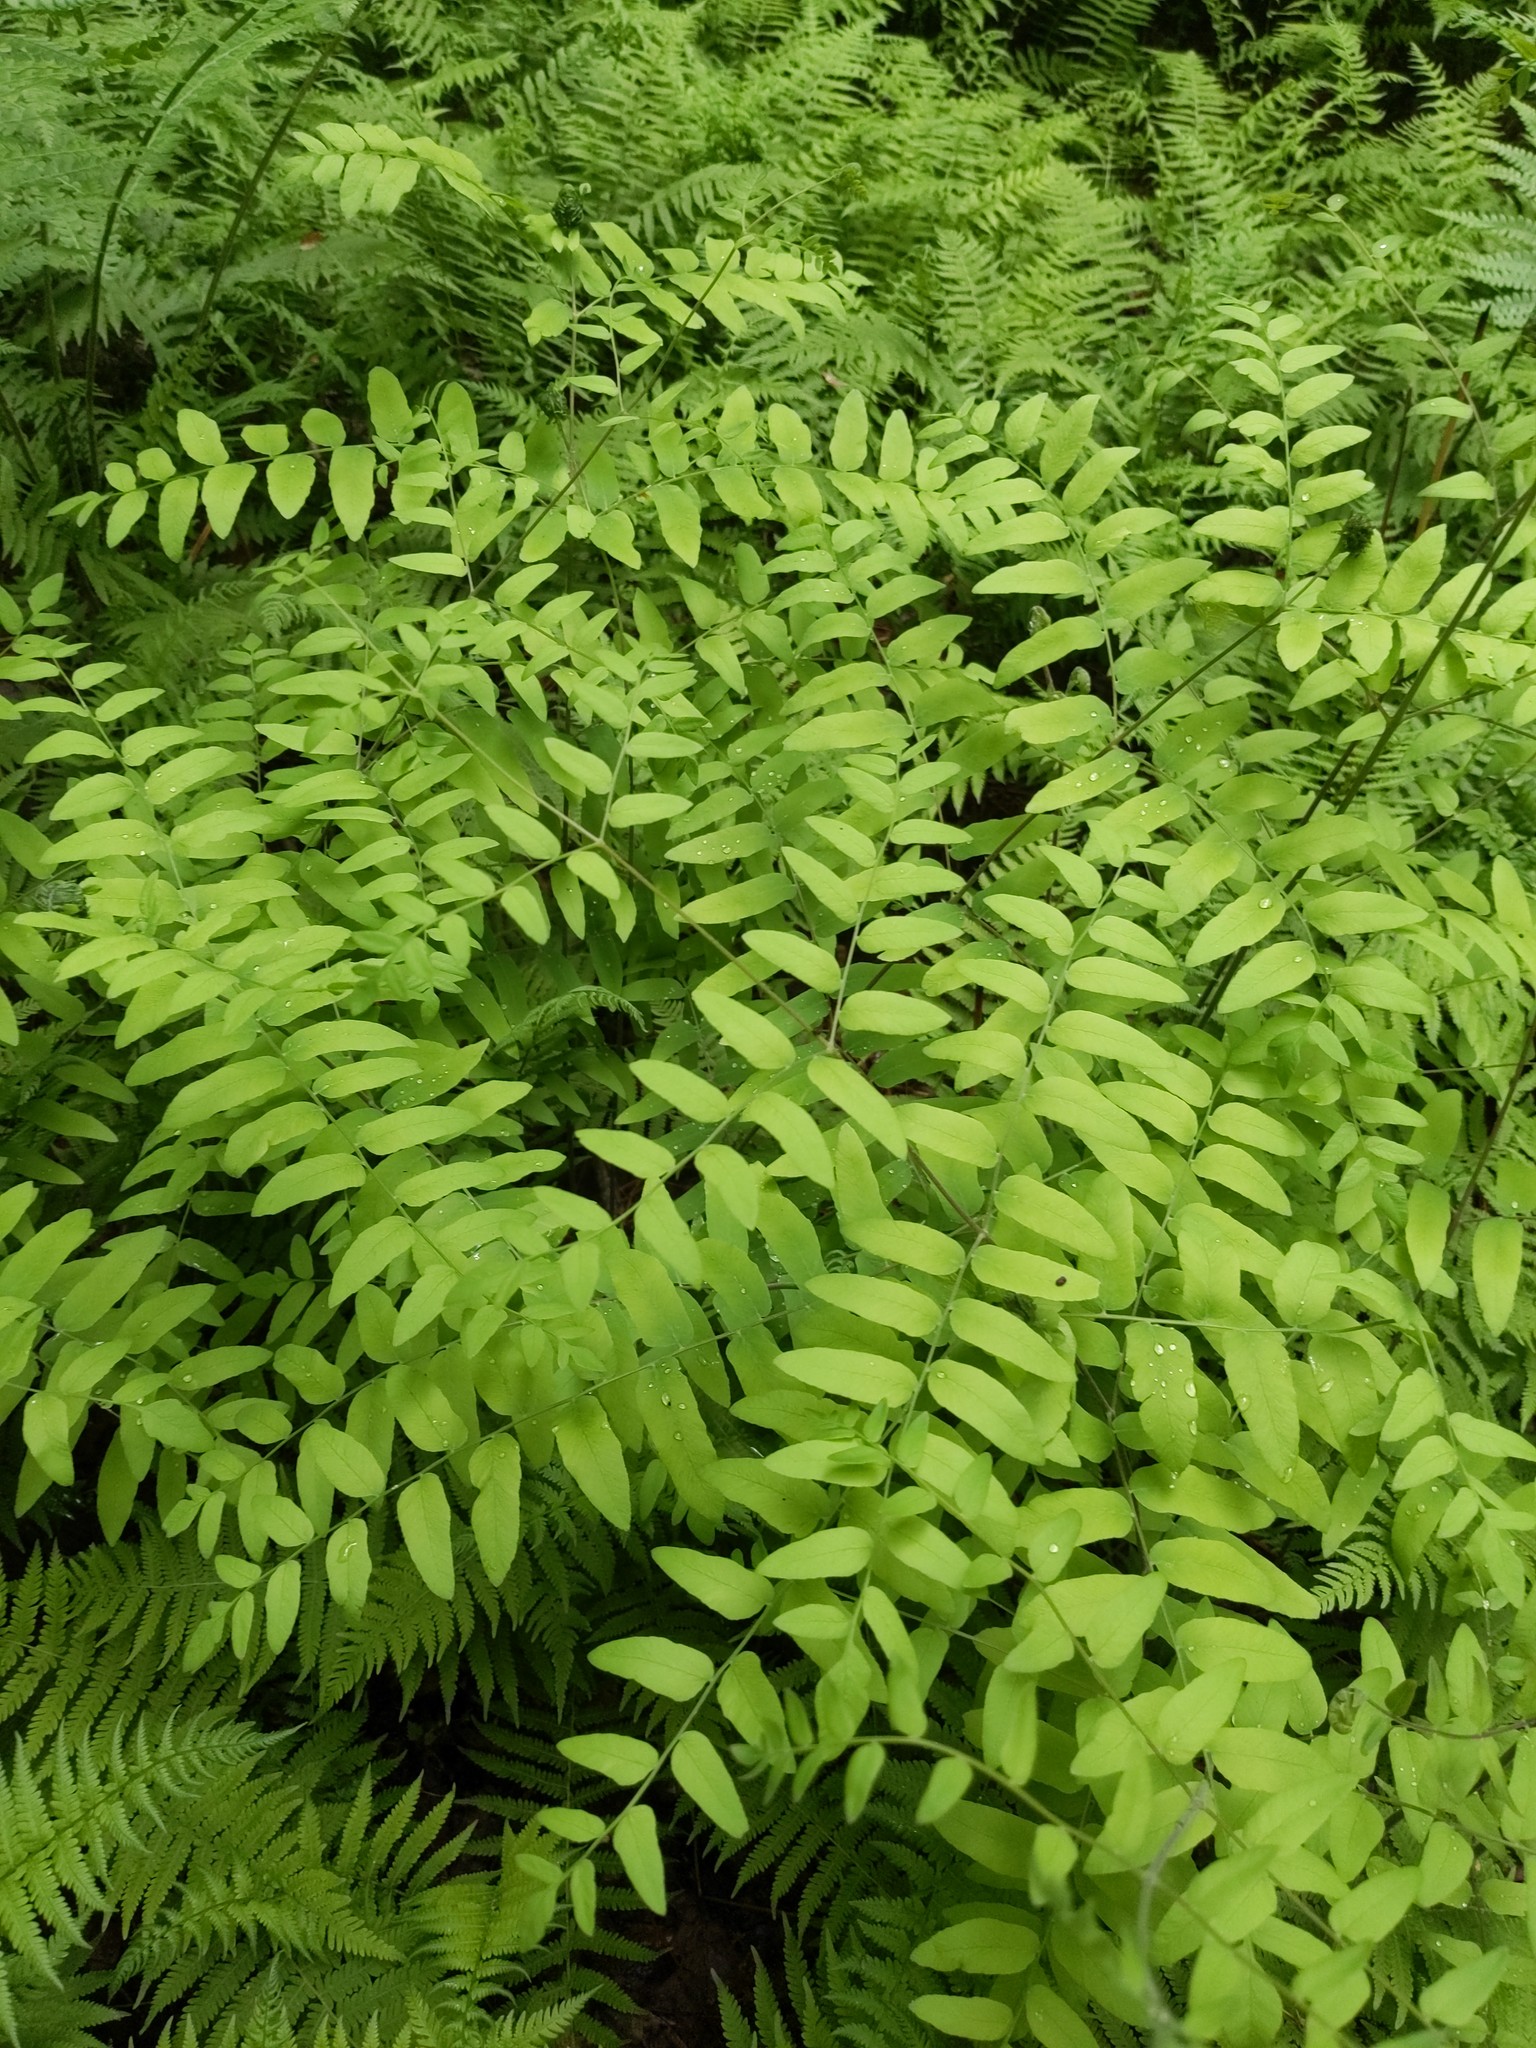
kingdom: Plantae
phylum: Tracheophyta
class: Polypodiopsida
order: Osmundales
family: Osmundaceae
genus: Osmunda
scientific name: Osmunda spectabilis
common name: American royal fern
